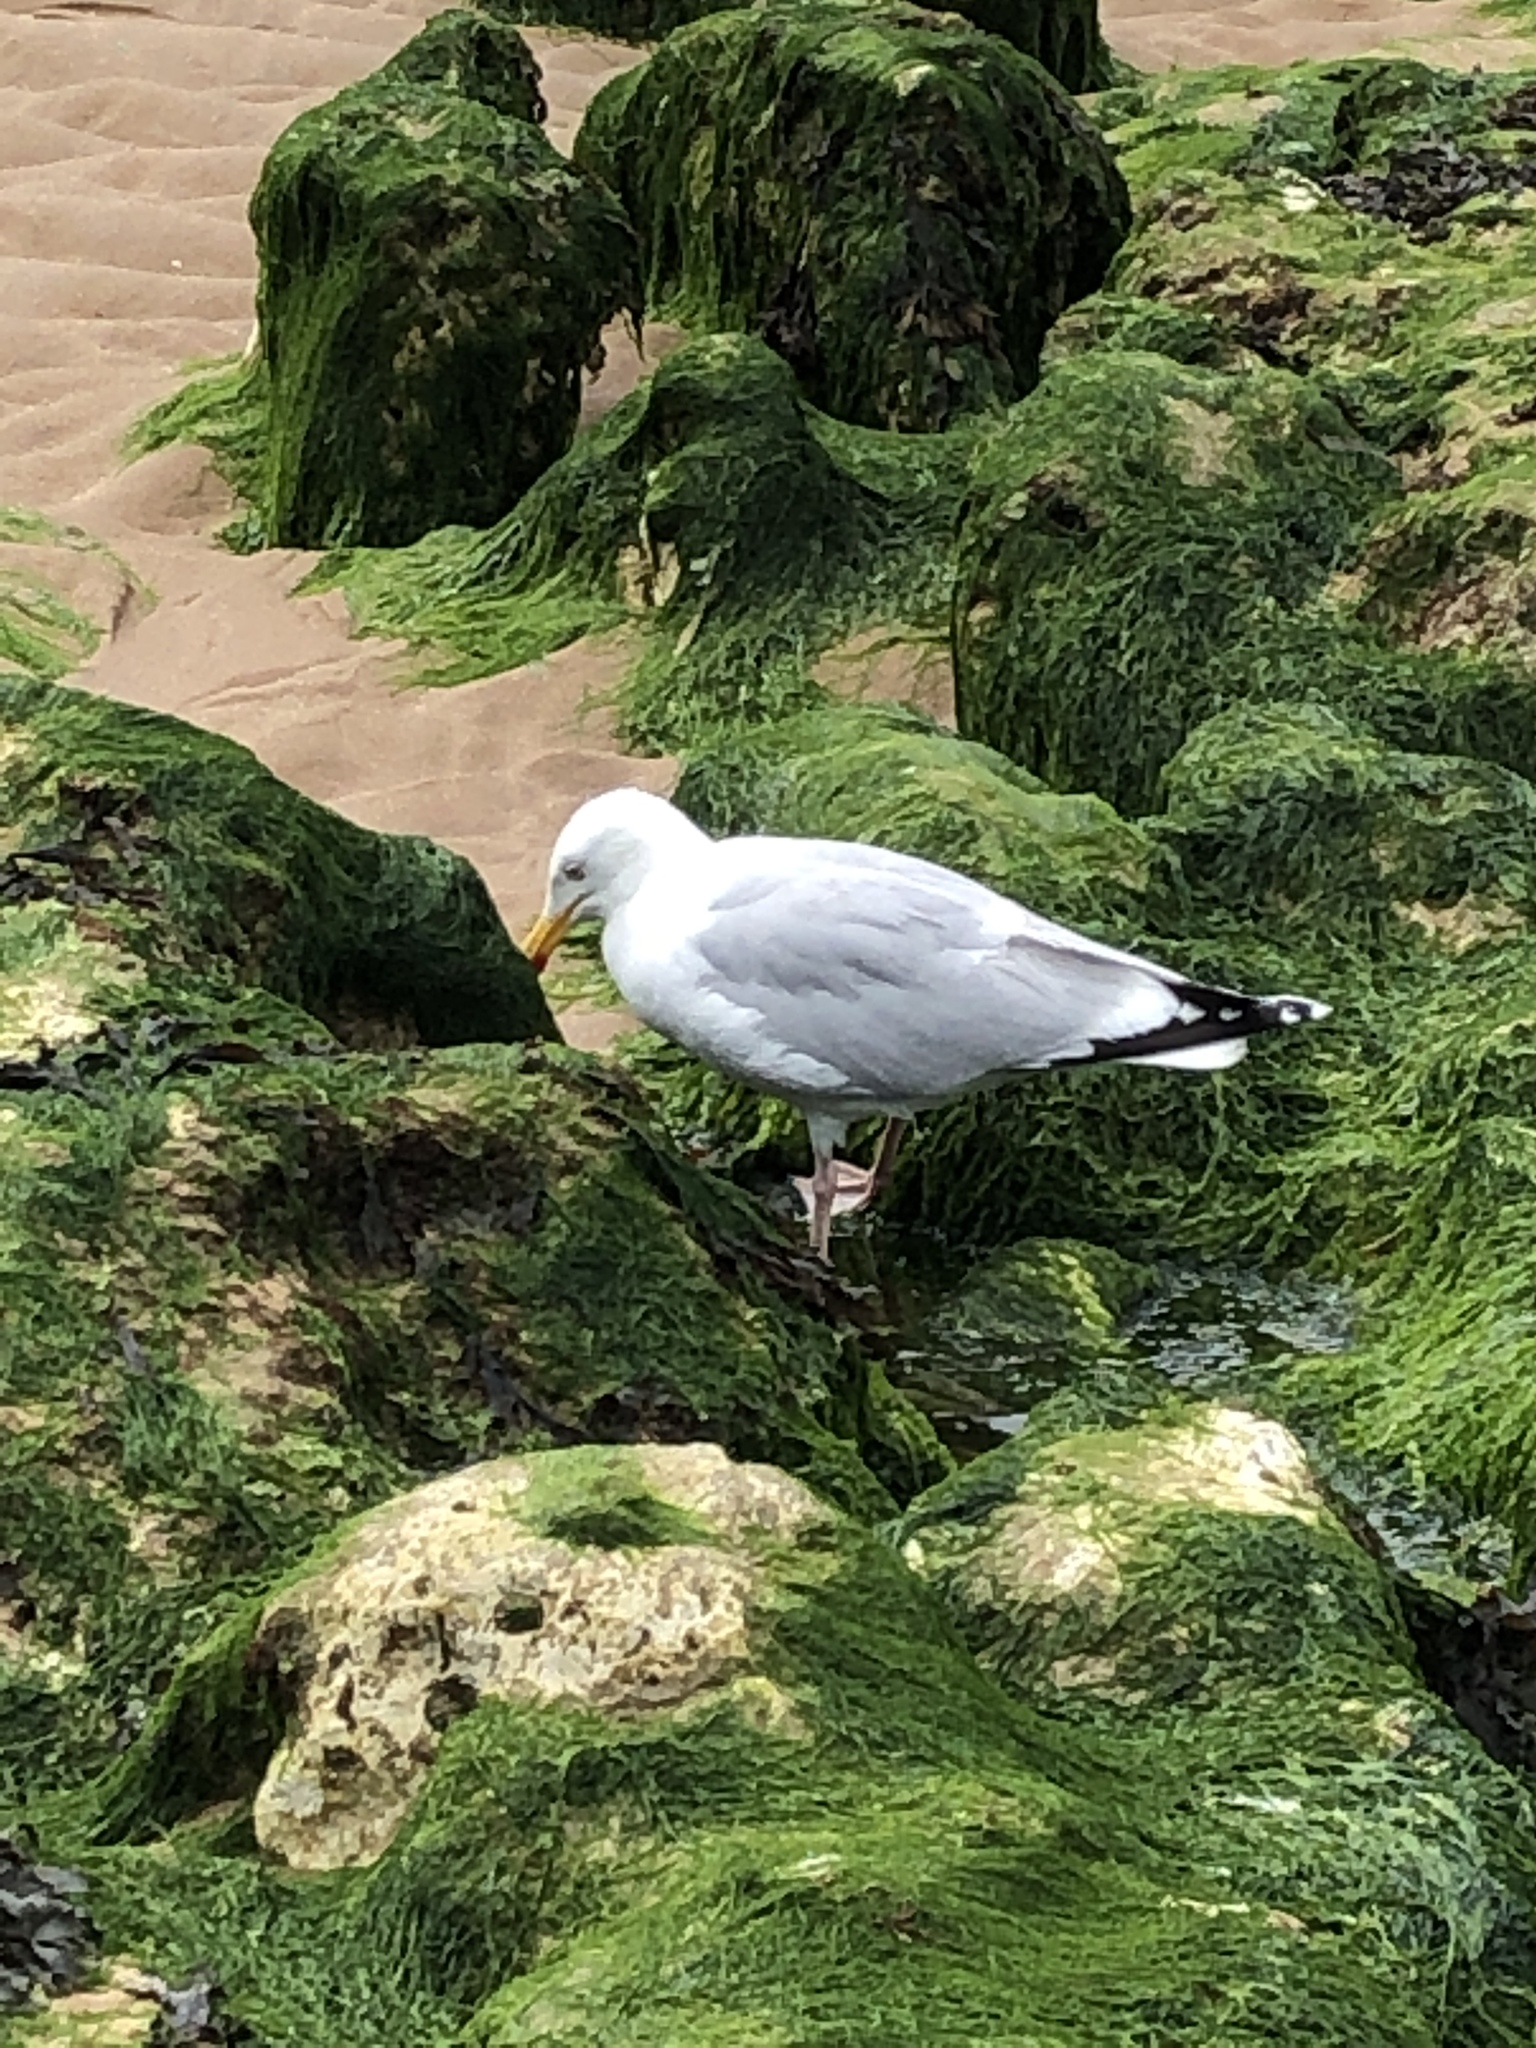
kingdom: Animalia
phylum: Chordata
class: Aves
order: Charadriiformes
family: Laridae
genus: Larus
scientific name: Larus argentatus
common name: Herring gull
